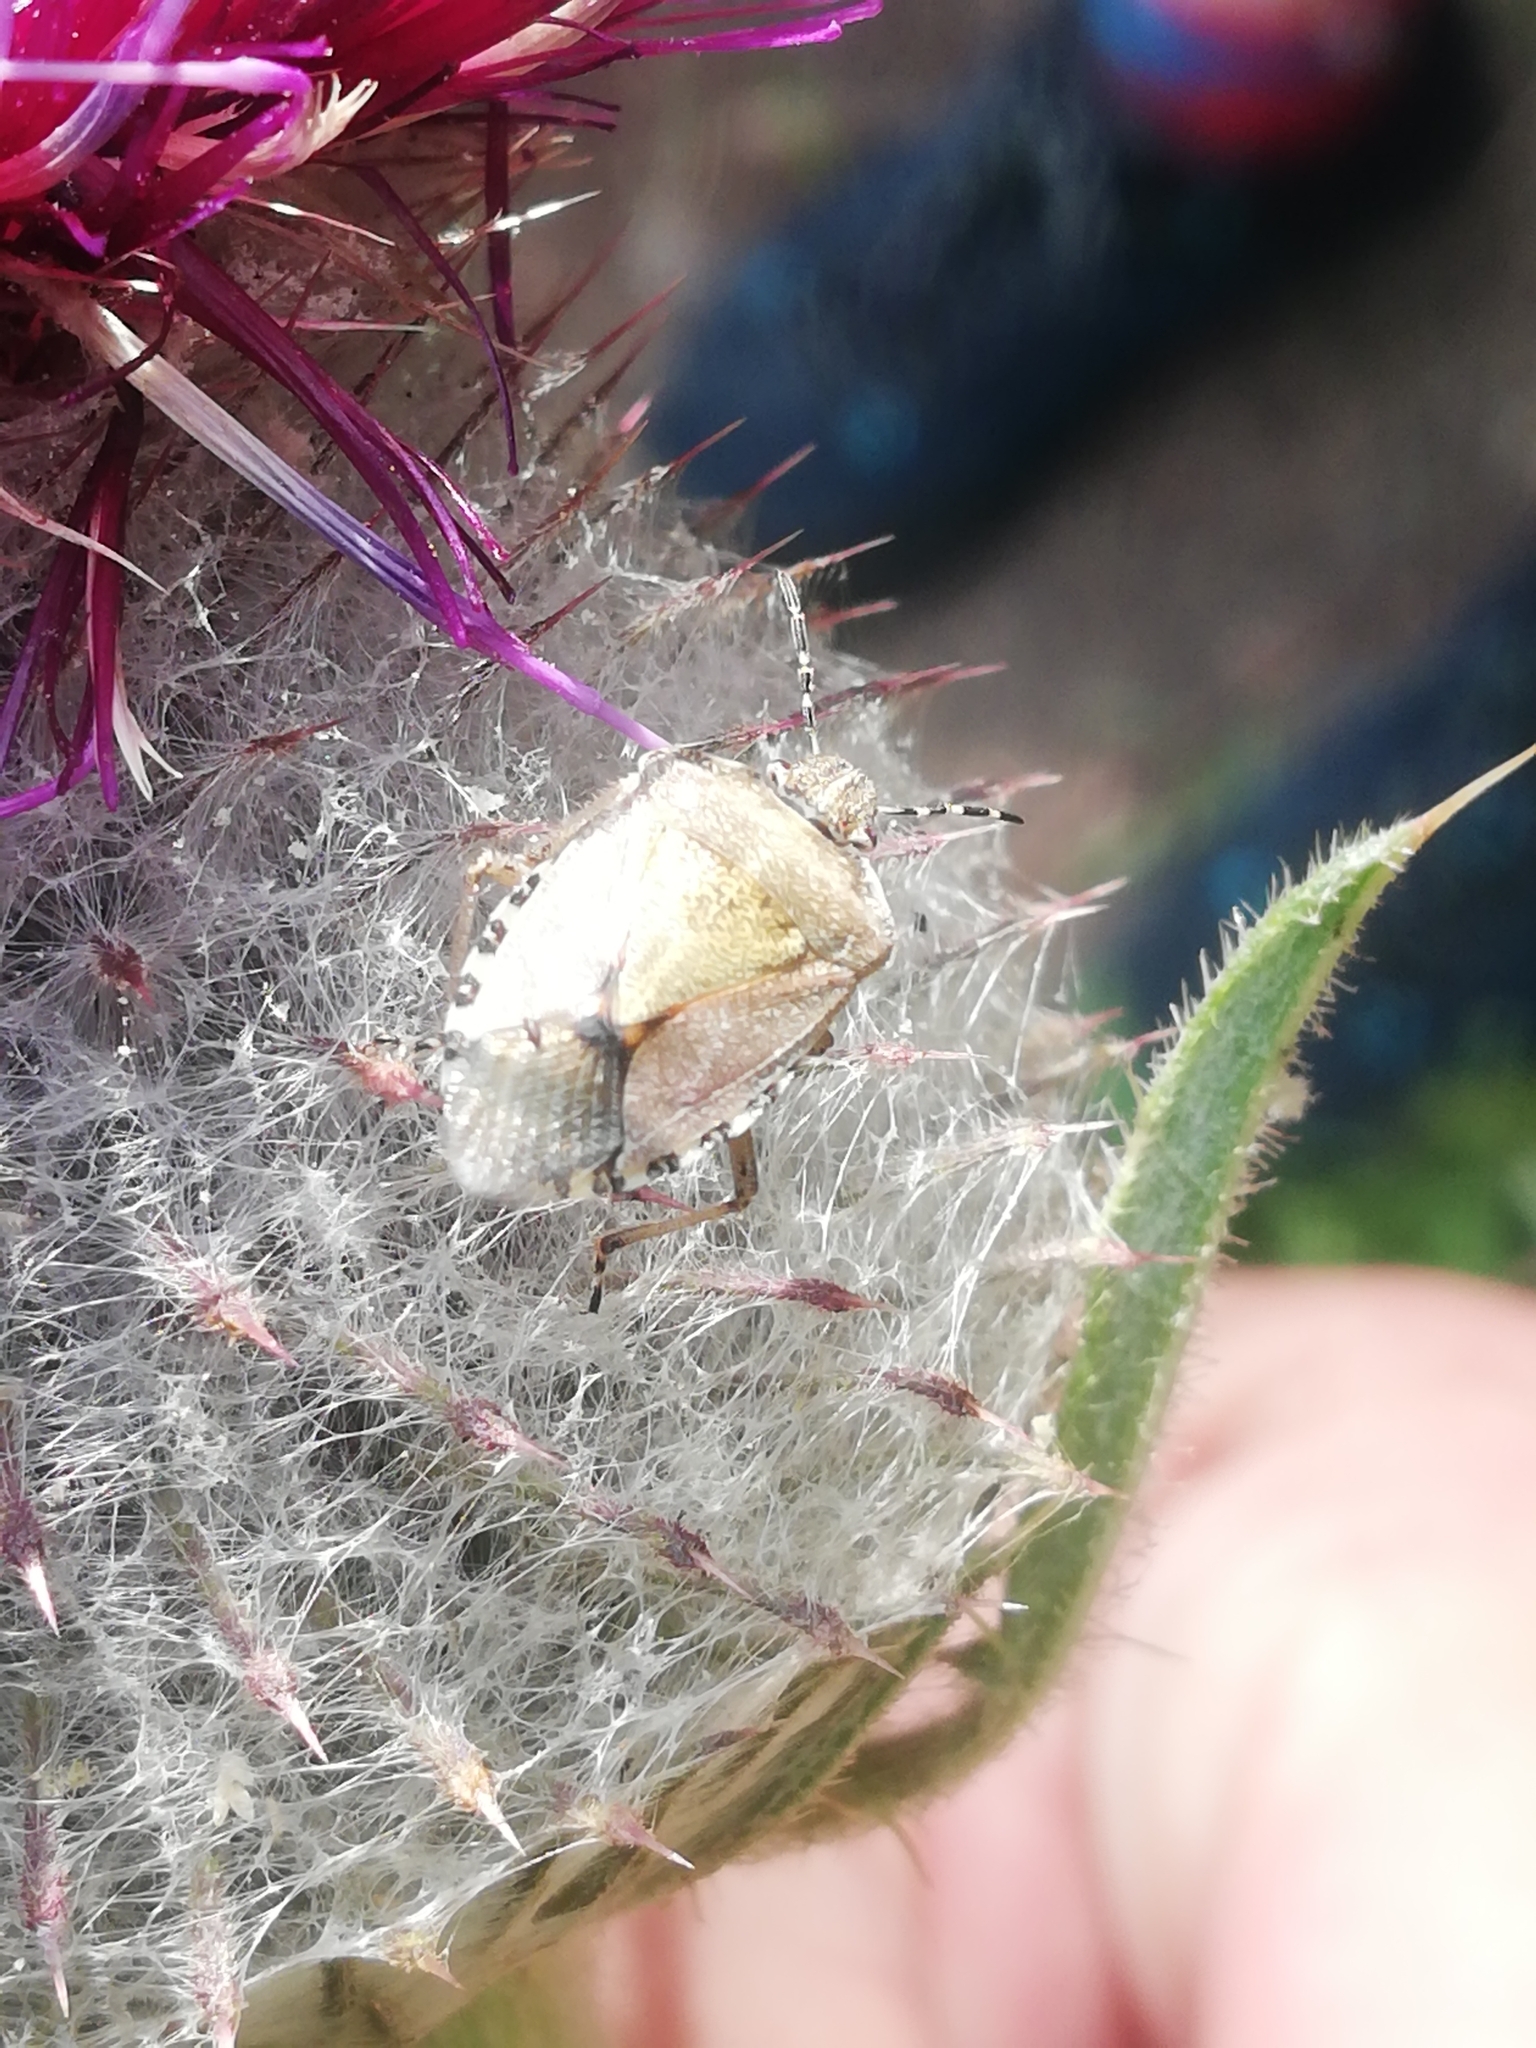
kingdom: Animalia
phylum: Arthropoda
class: Insecta
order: Hemiptera
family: Pentatomidae
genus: Dolycoris
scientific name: Dolycoris baccarum
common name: Sloe bug
